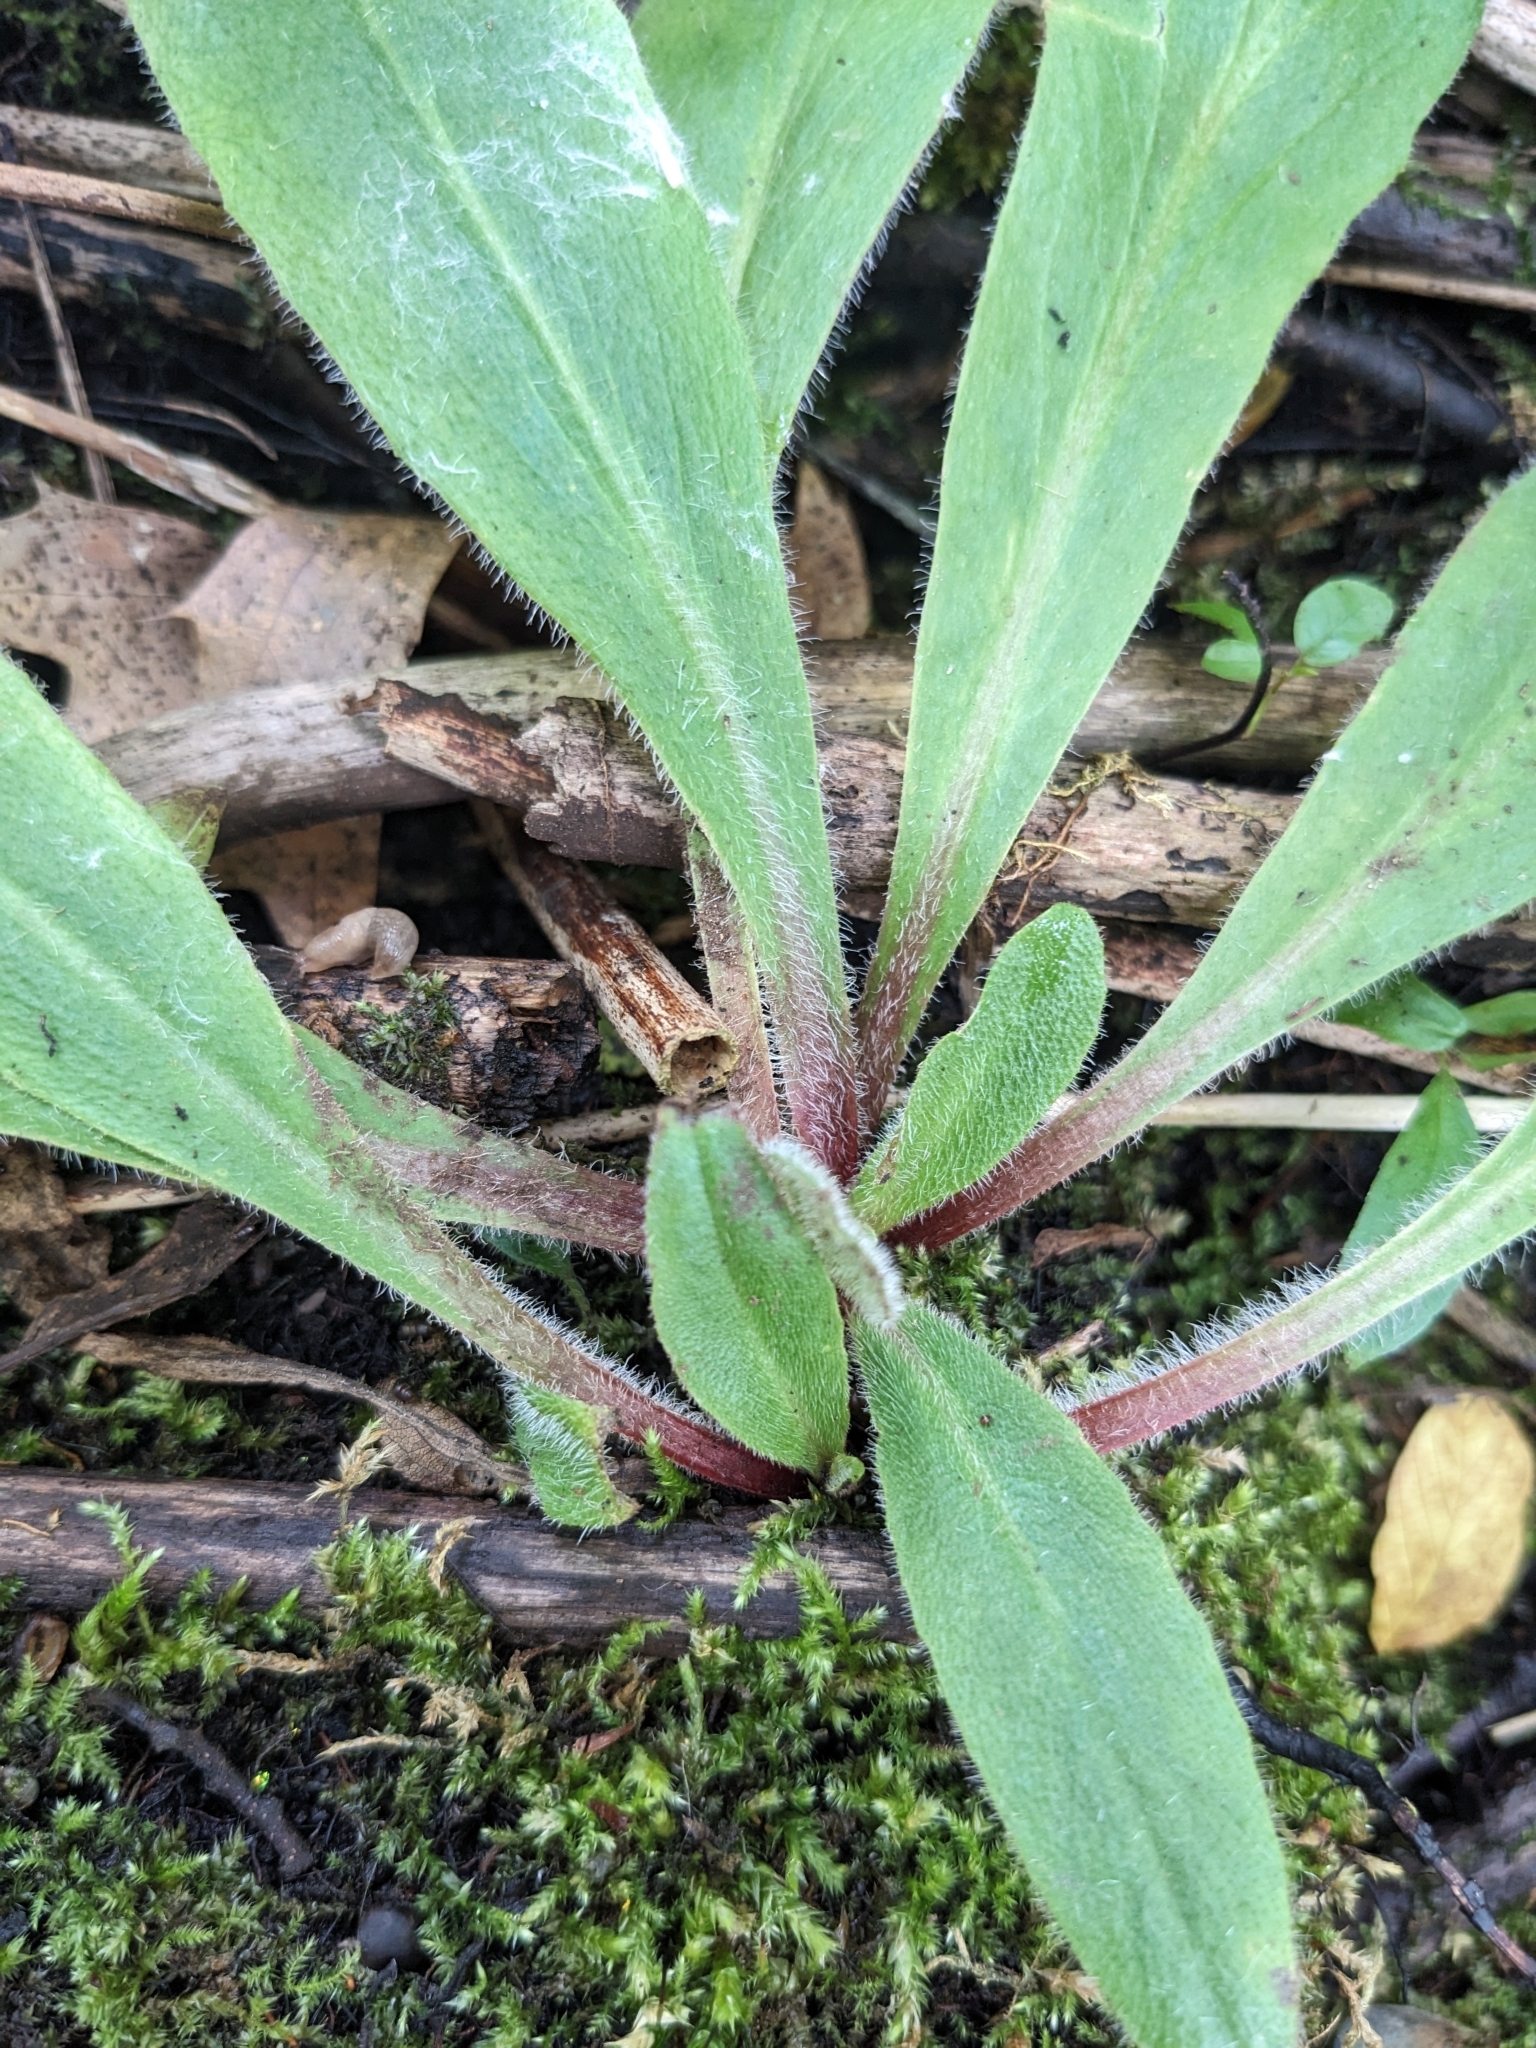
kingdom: Plantae
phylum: Tracheophyta
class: Magnoliopsida
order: Saxifragales
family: Saxifragaceae
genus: Micranthes
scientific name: Micranthes pensylvanica
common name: Marsh saxifrage
